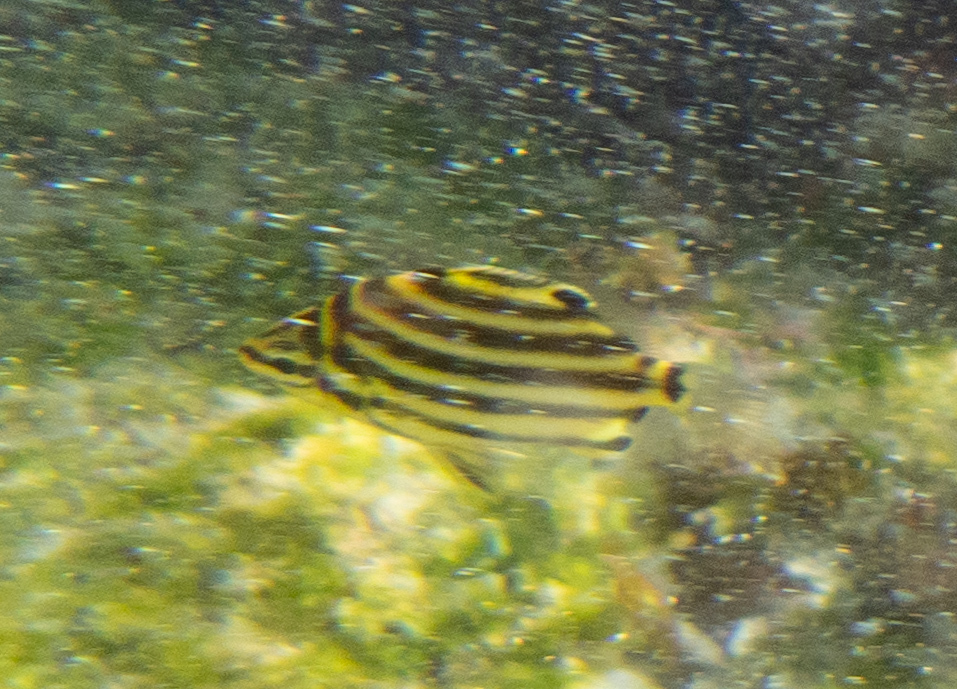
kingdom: Animalia
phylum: Chordata
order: Perciformes
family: Kyphosidae
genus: Microcanthus
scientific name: Microcanthus joyceae
